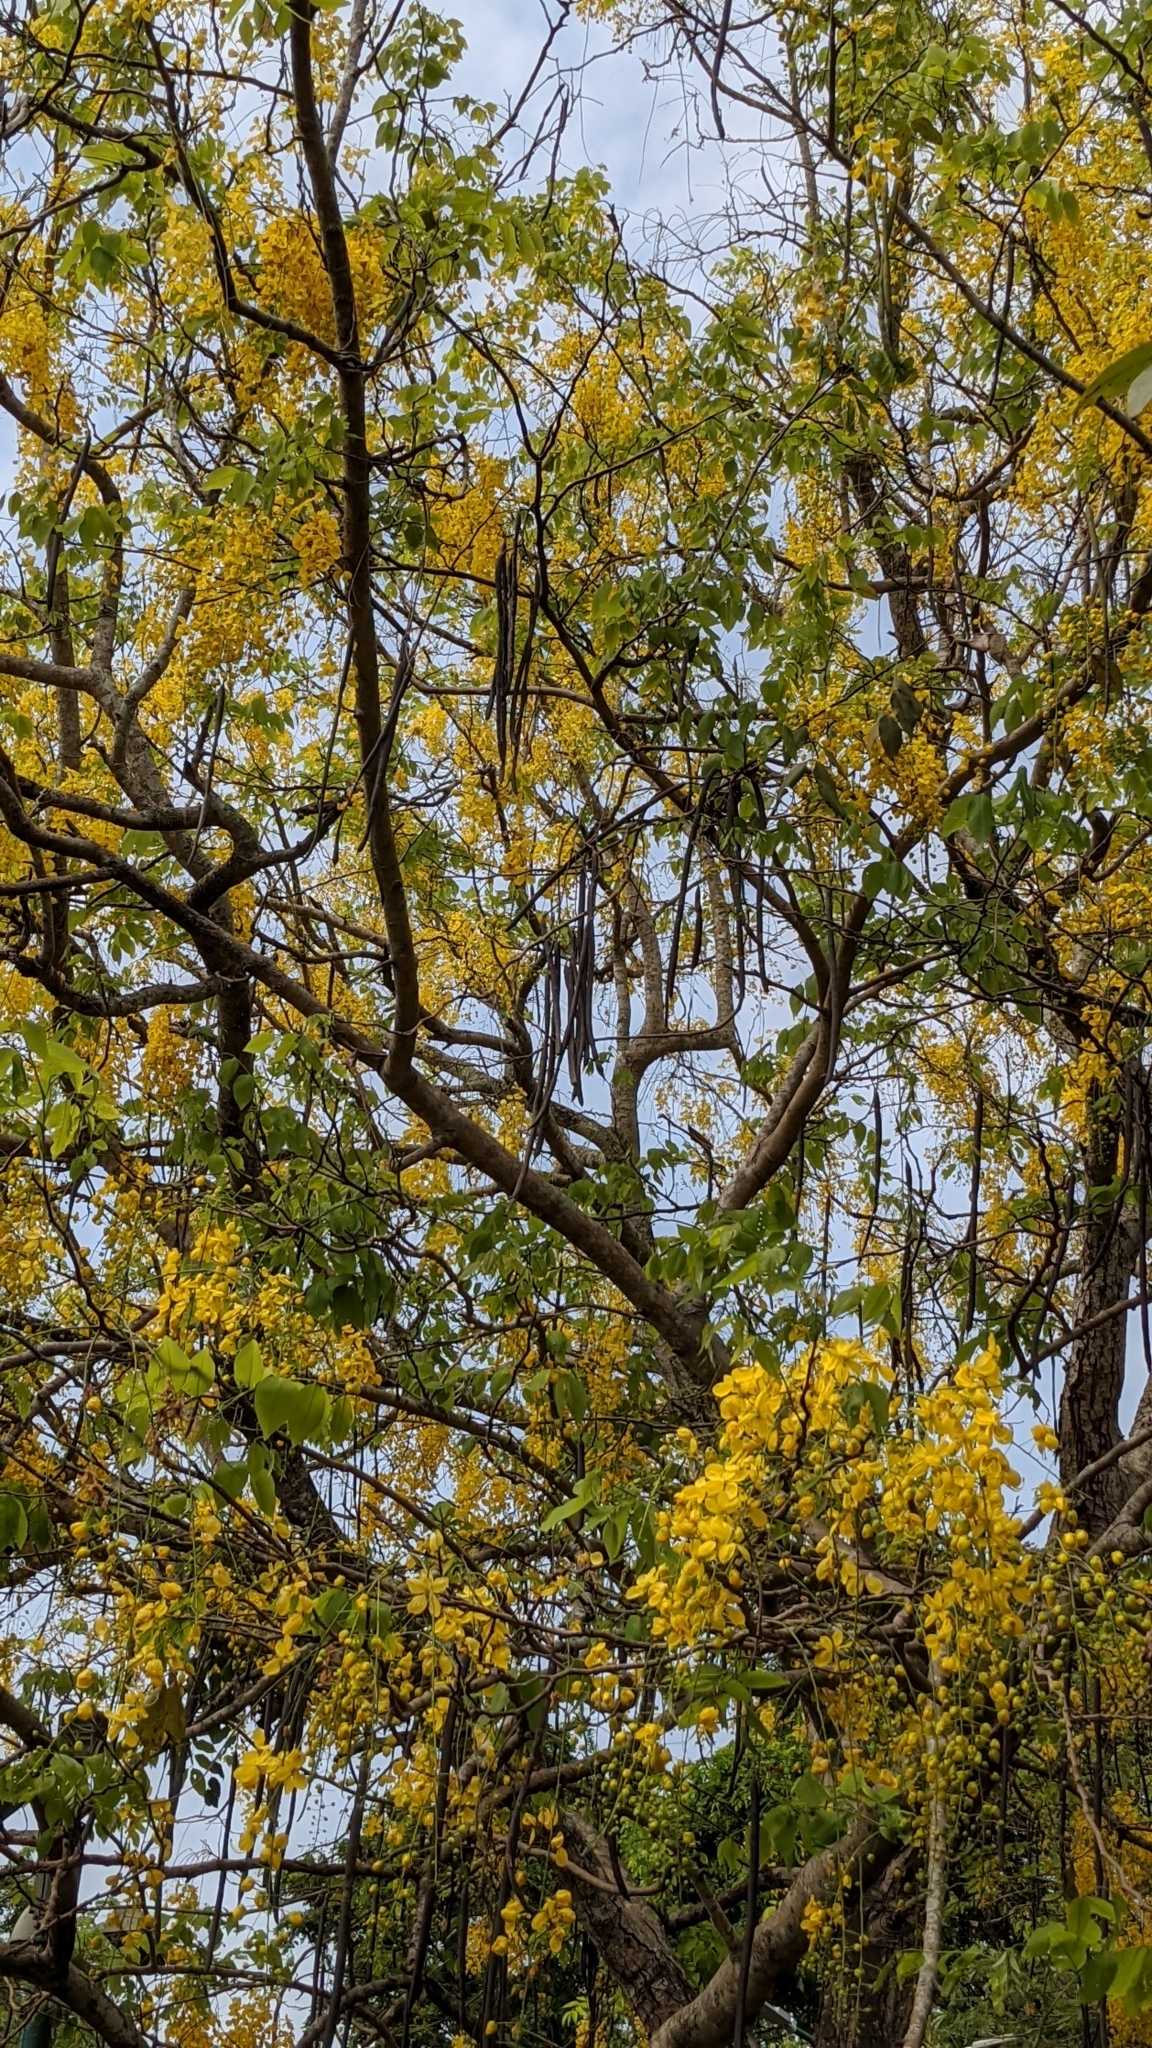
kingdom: Plantae
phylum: Tracheophyta
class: Magnoliopsida
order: Fabales
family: Fabaceae
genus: Cassia
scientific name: Cassia fistula
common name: Golden shower
